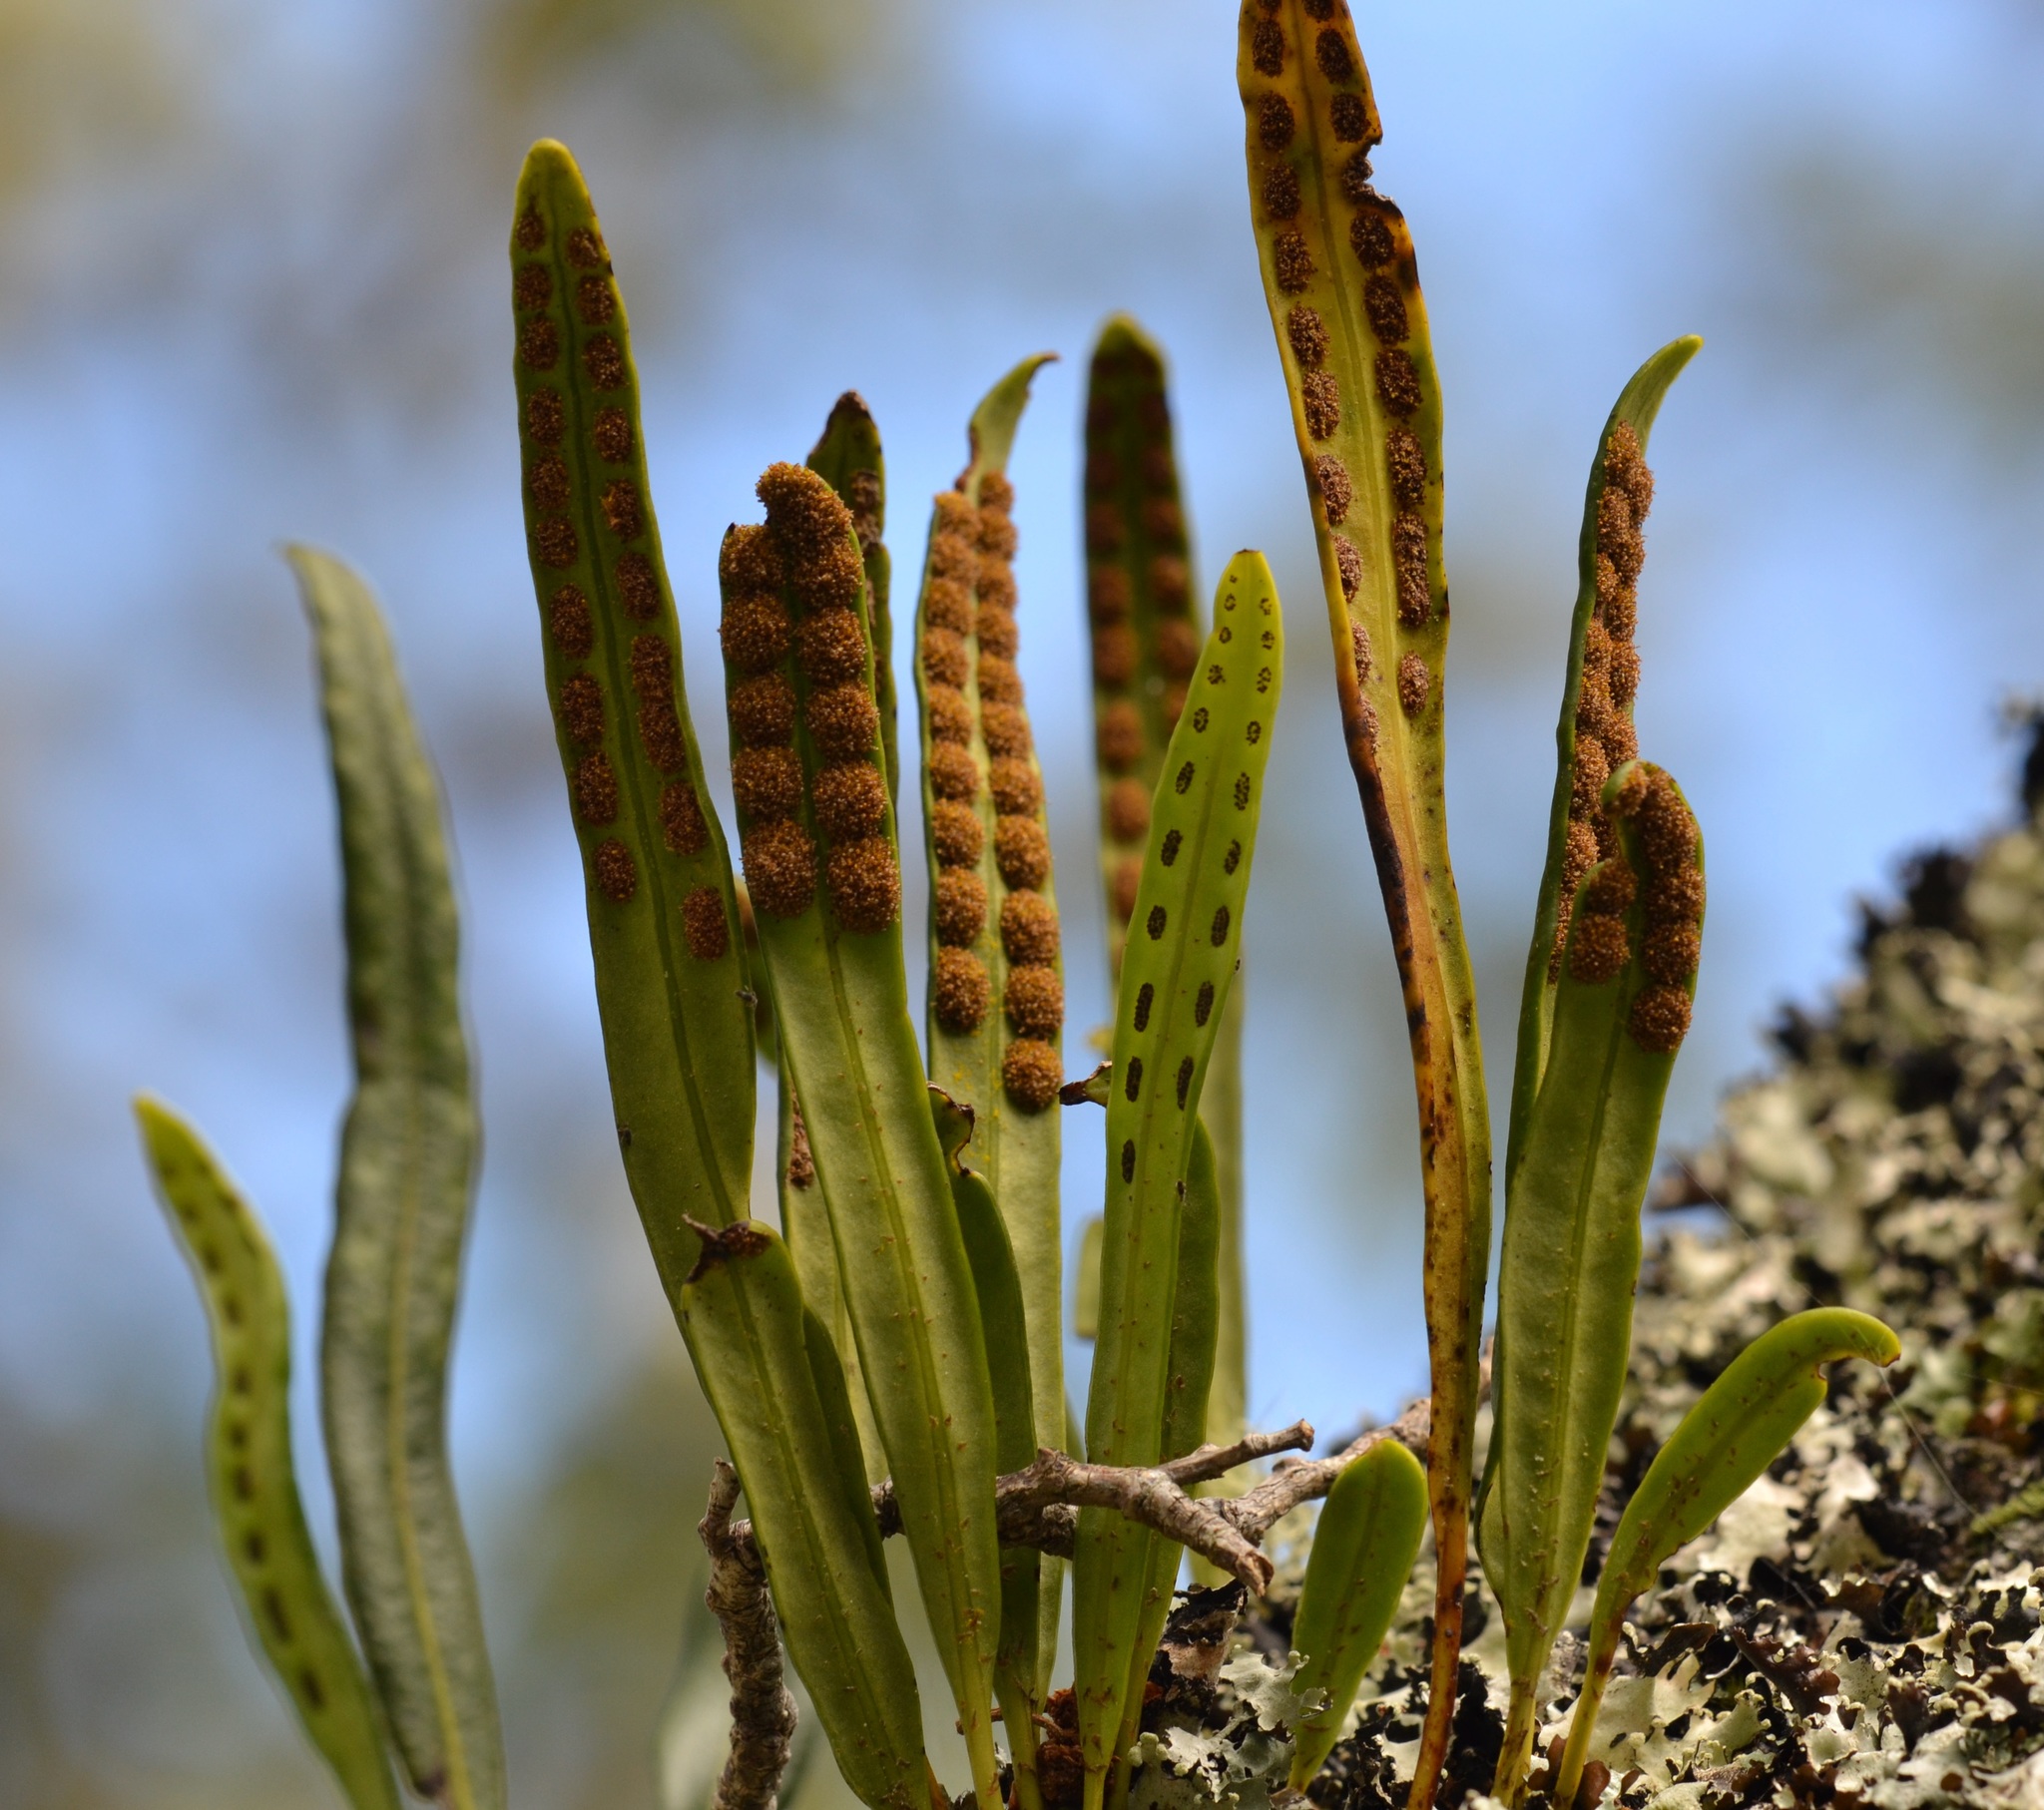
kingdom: Plantae
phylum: Tracheophyta
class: Polypodiopsida
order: Polypodiales
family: Polypodiaceae
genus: Lepisorus
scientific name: Lepisorus thunbergianus
